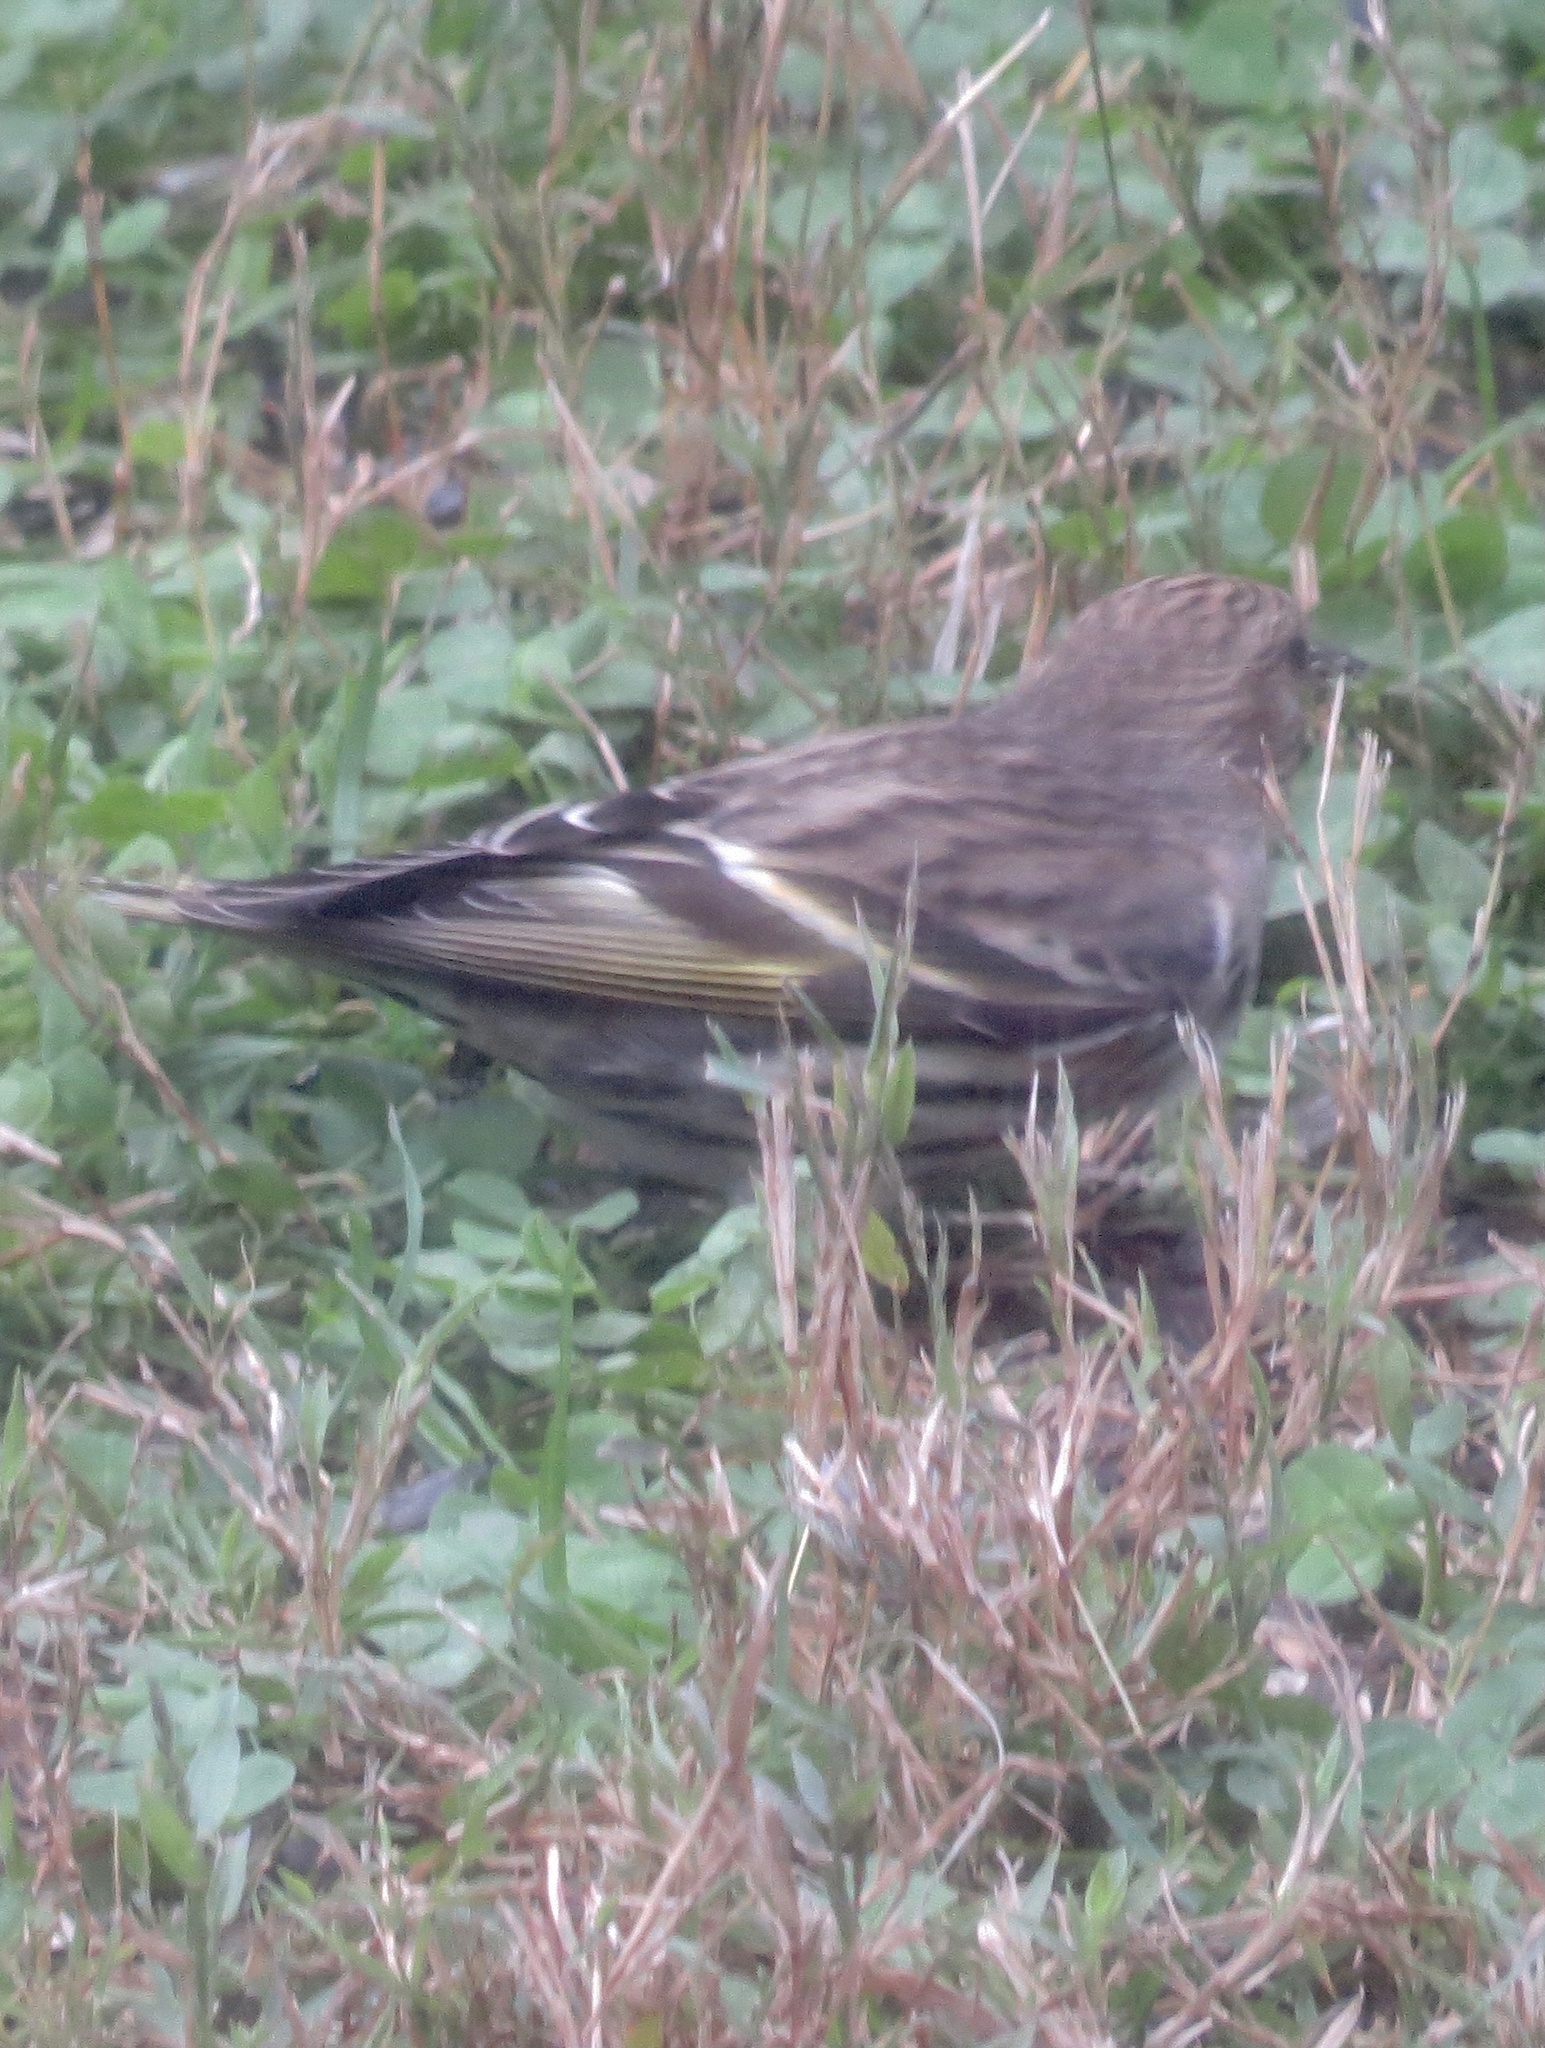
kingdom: Animalia
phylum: Chordata
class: Aves
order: Passeriformes
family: Fringillidae
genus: Spinus
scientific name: Spinus pinus
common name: Pine siskin
